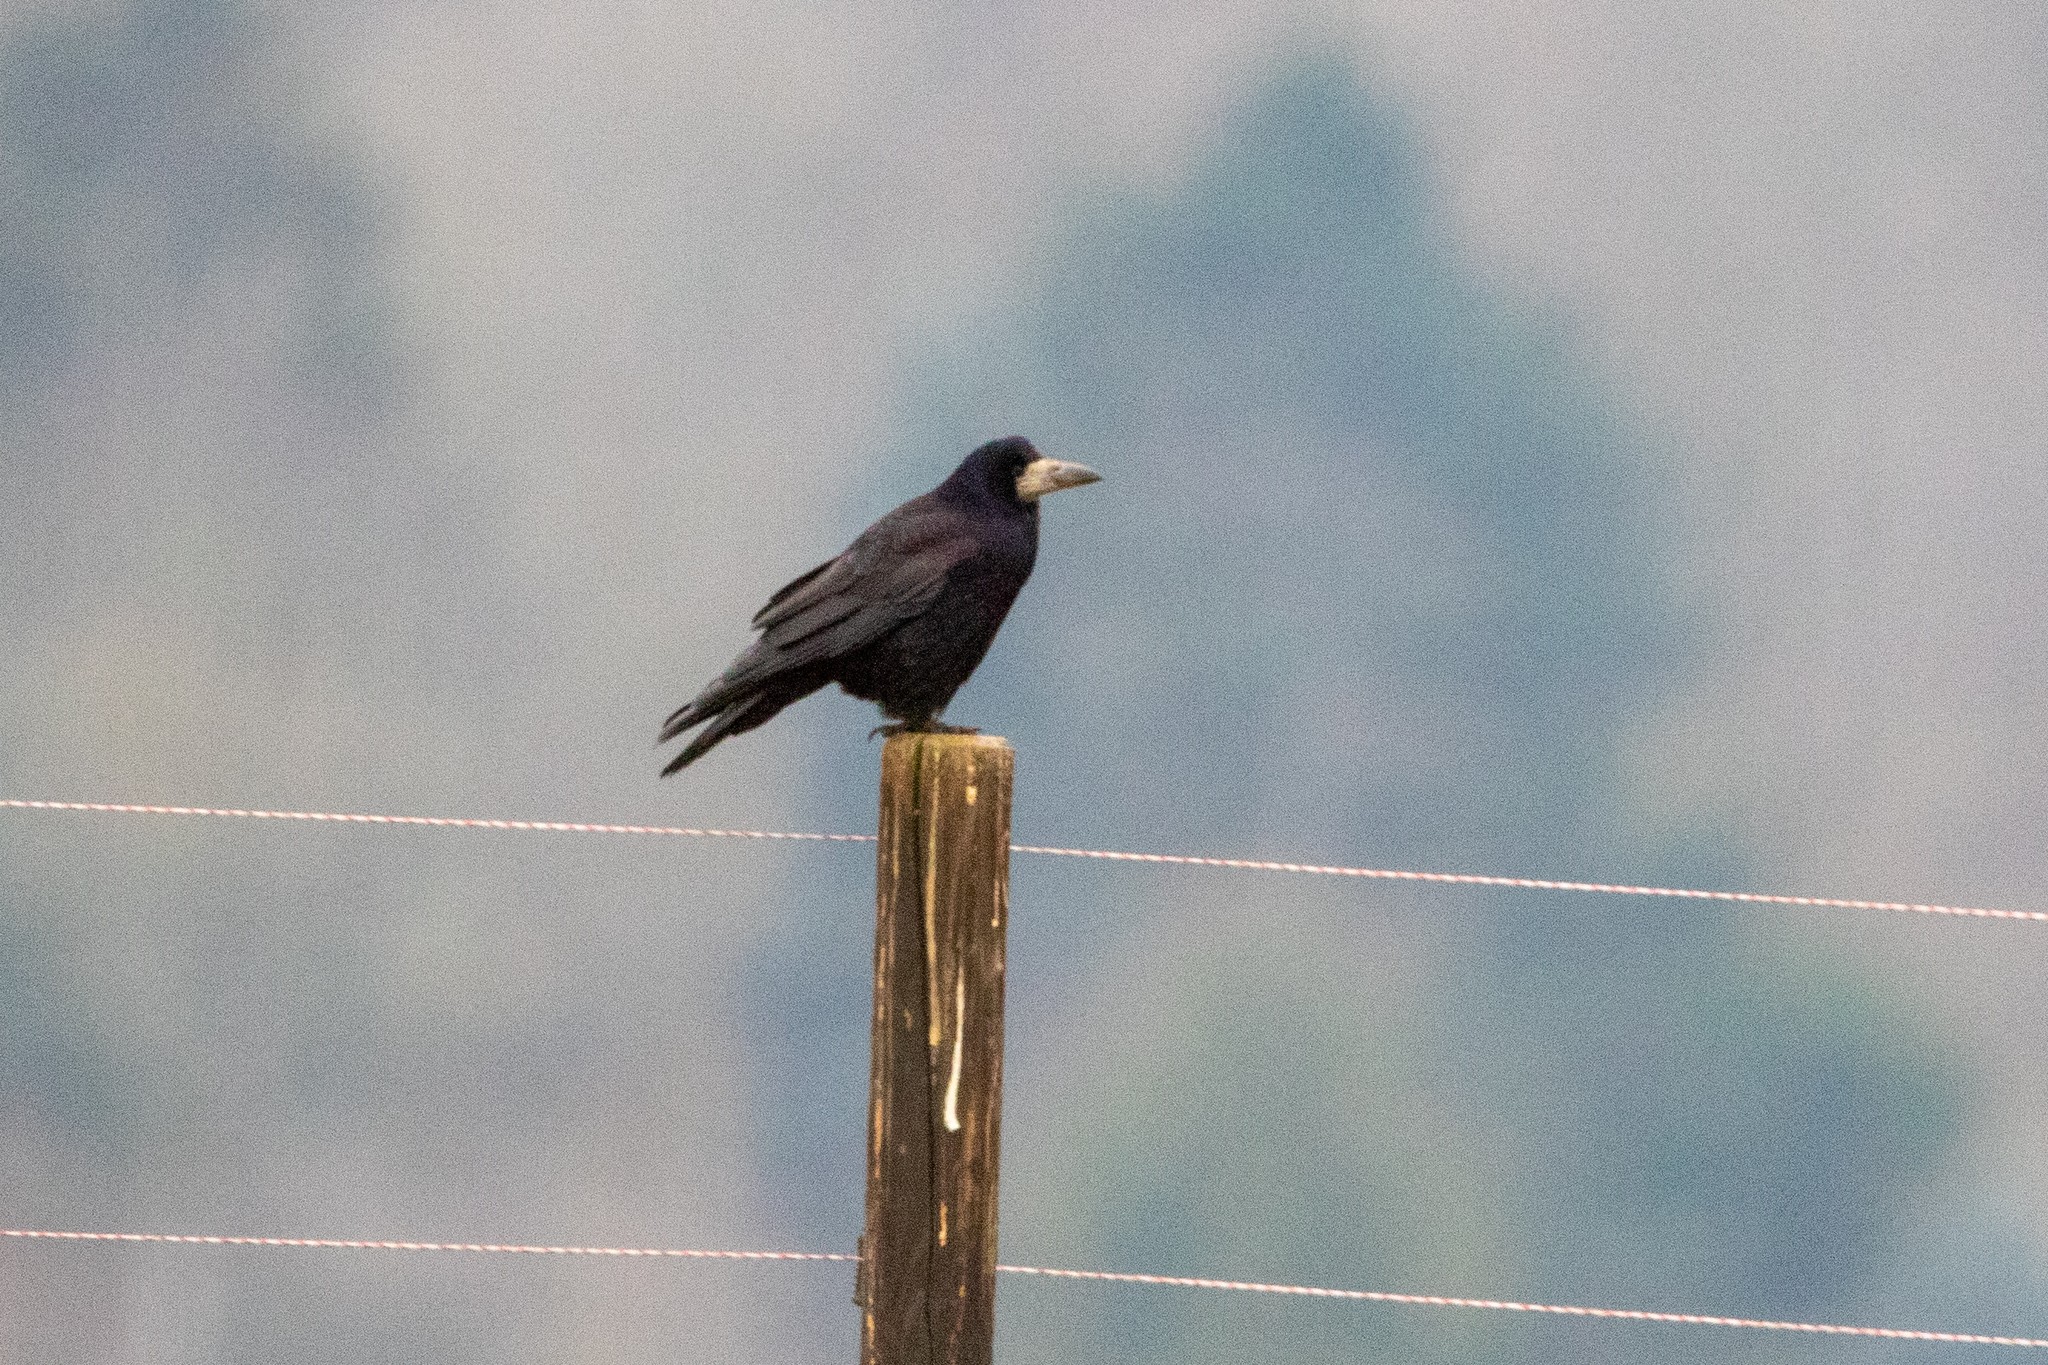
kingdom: Animalia
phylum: Chordata
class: Aves
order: Passeriformes
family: Corvidae
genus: Corvus
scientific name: Corvus frugilegus
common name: Rook
